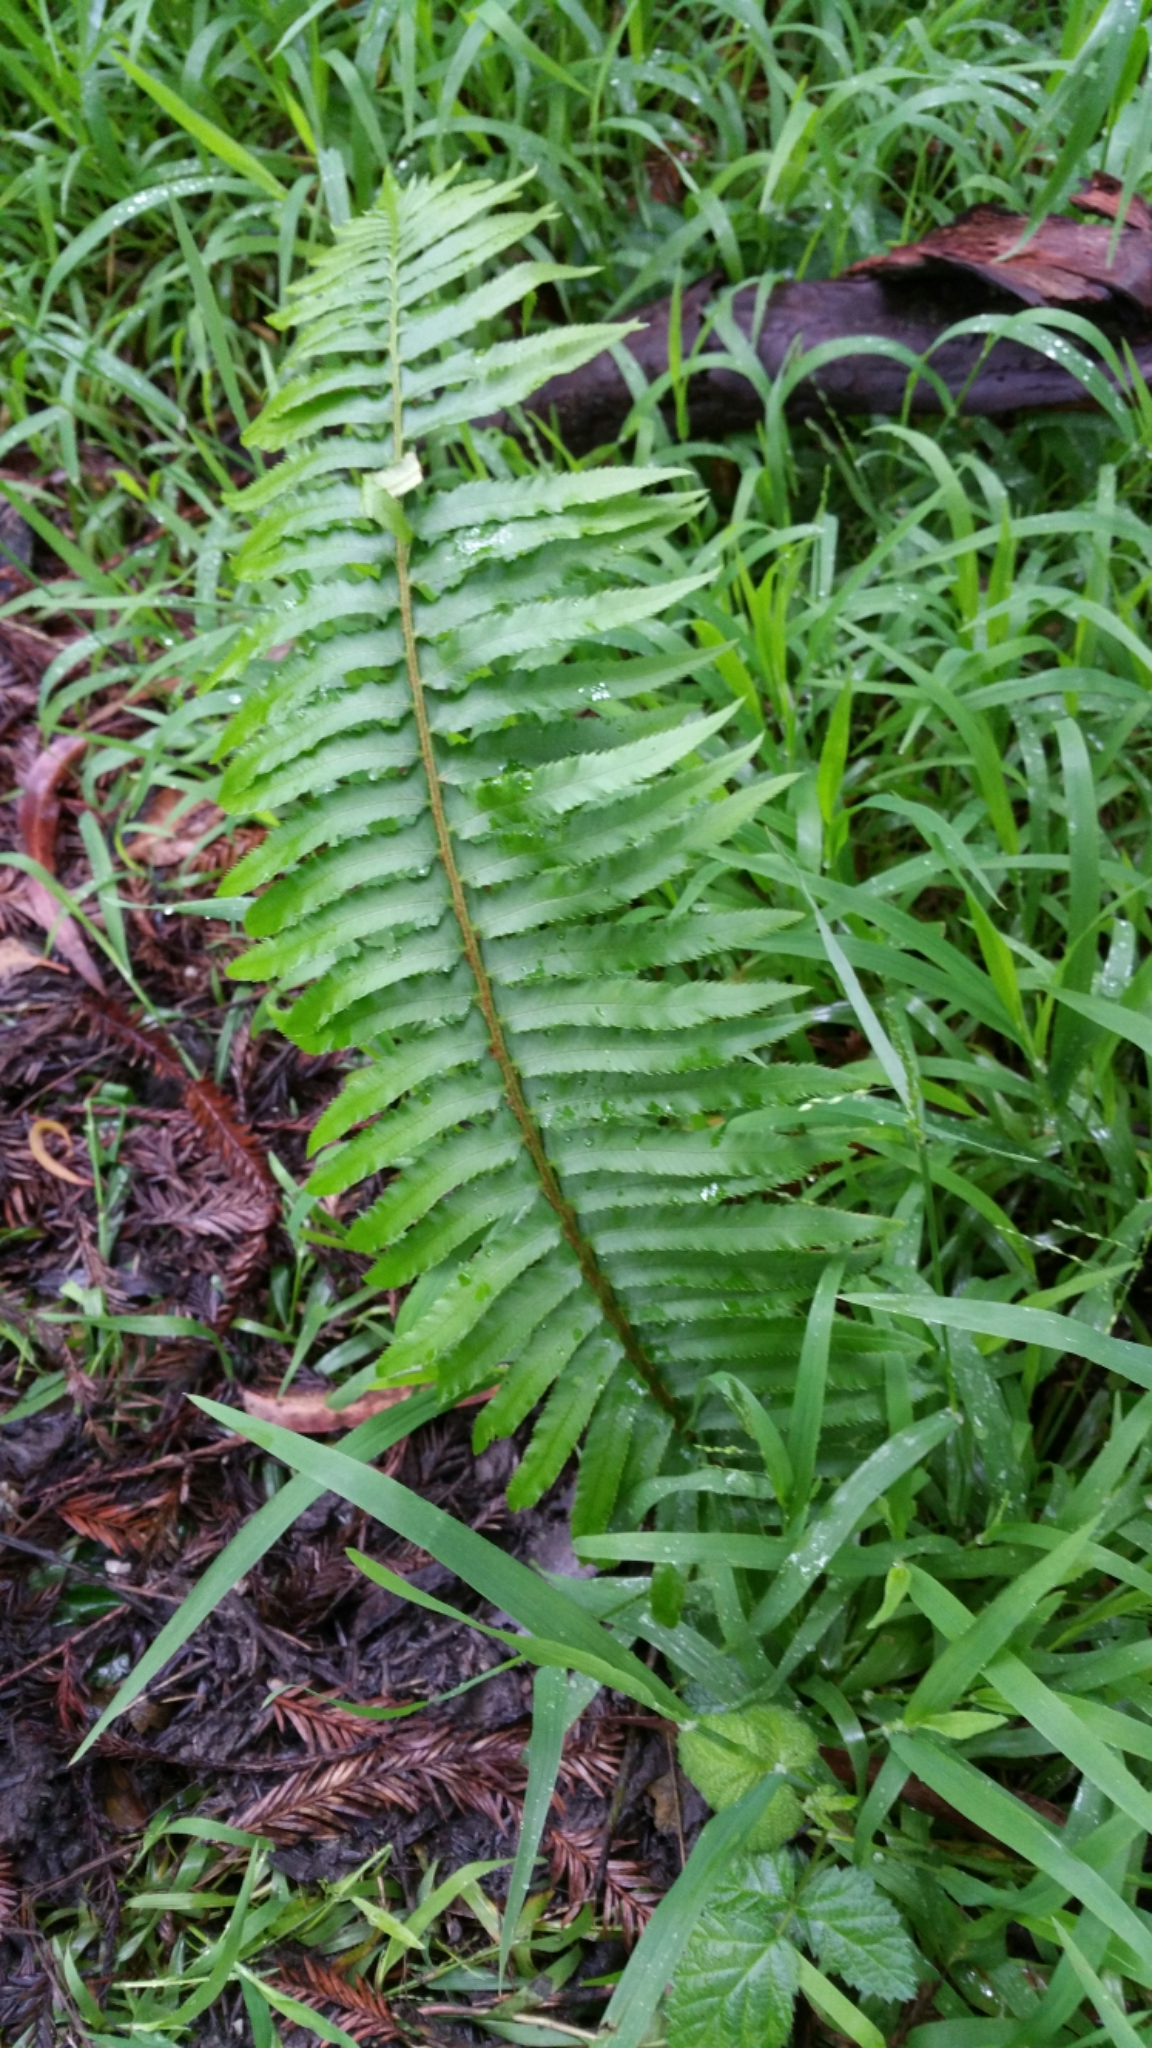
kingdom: Plantae
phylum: Tracheophyta
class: Polypodiopsida
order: Polypodiales
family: Dryopteridaceae
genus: Polystichum
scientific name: Polystichum munitum
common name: Western sword-fern
